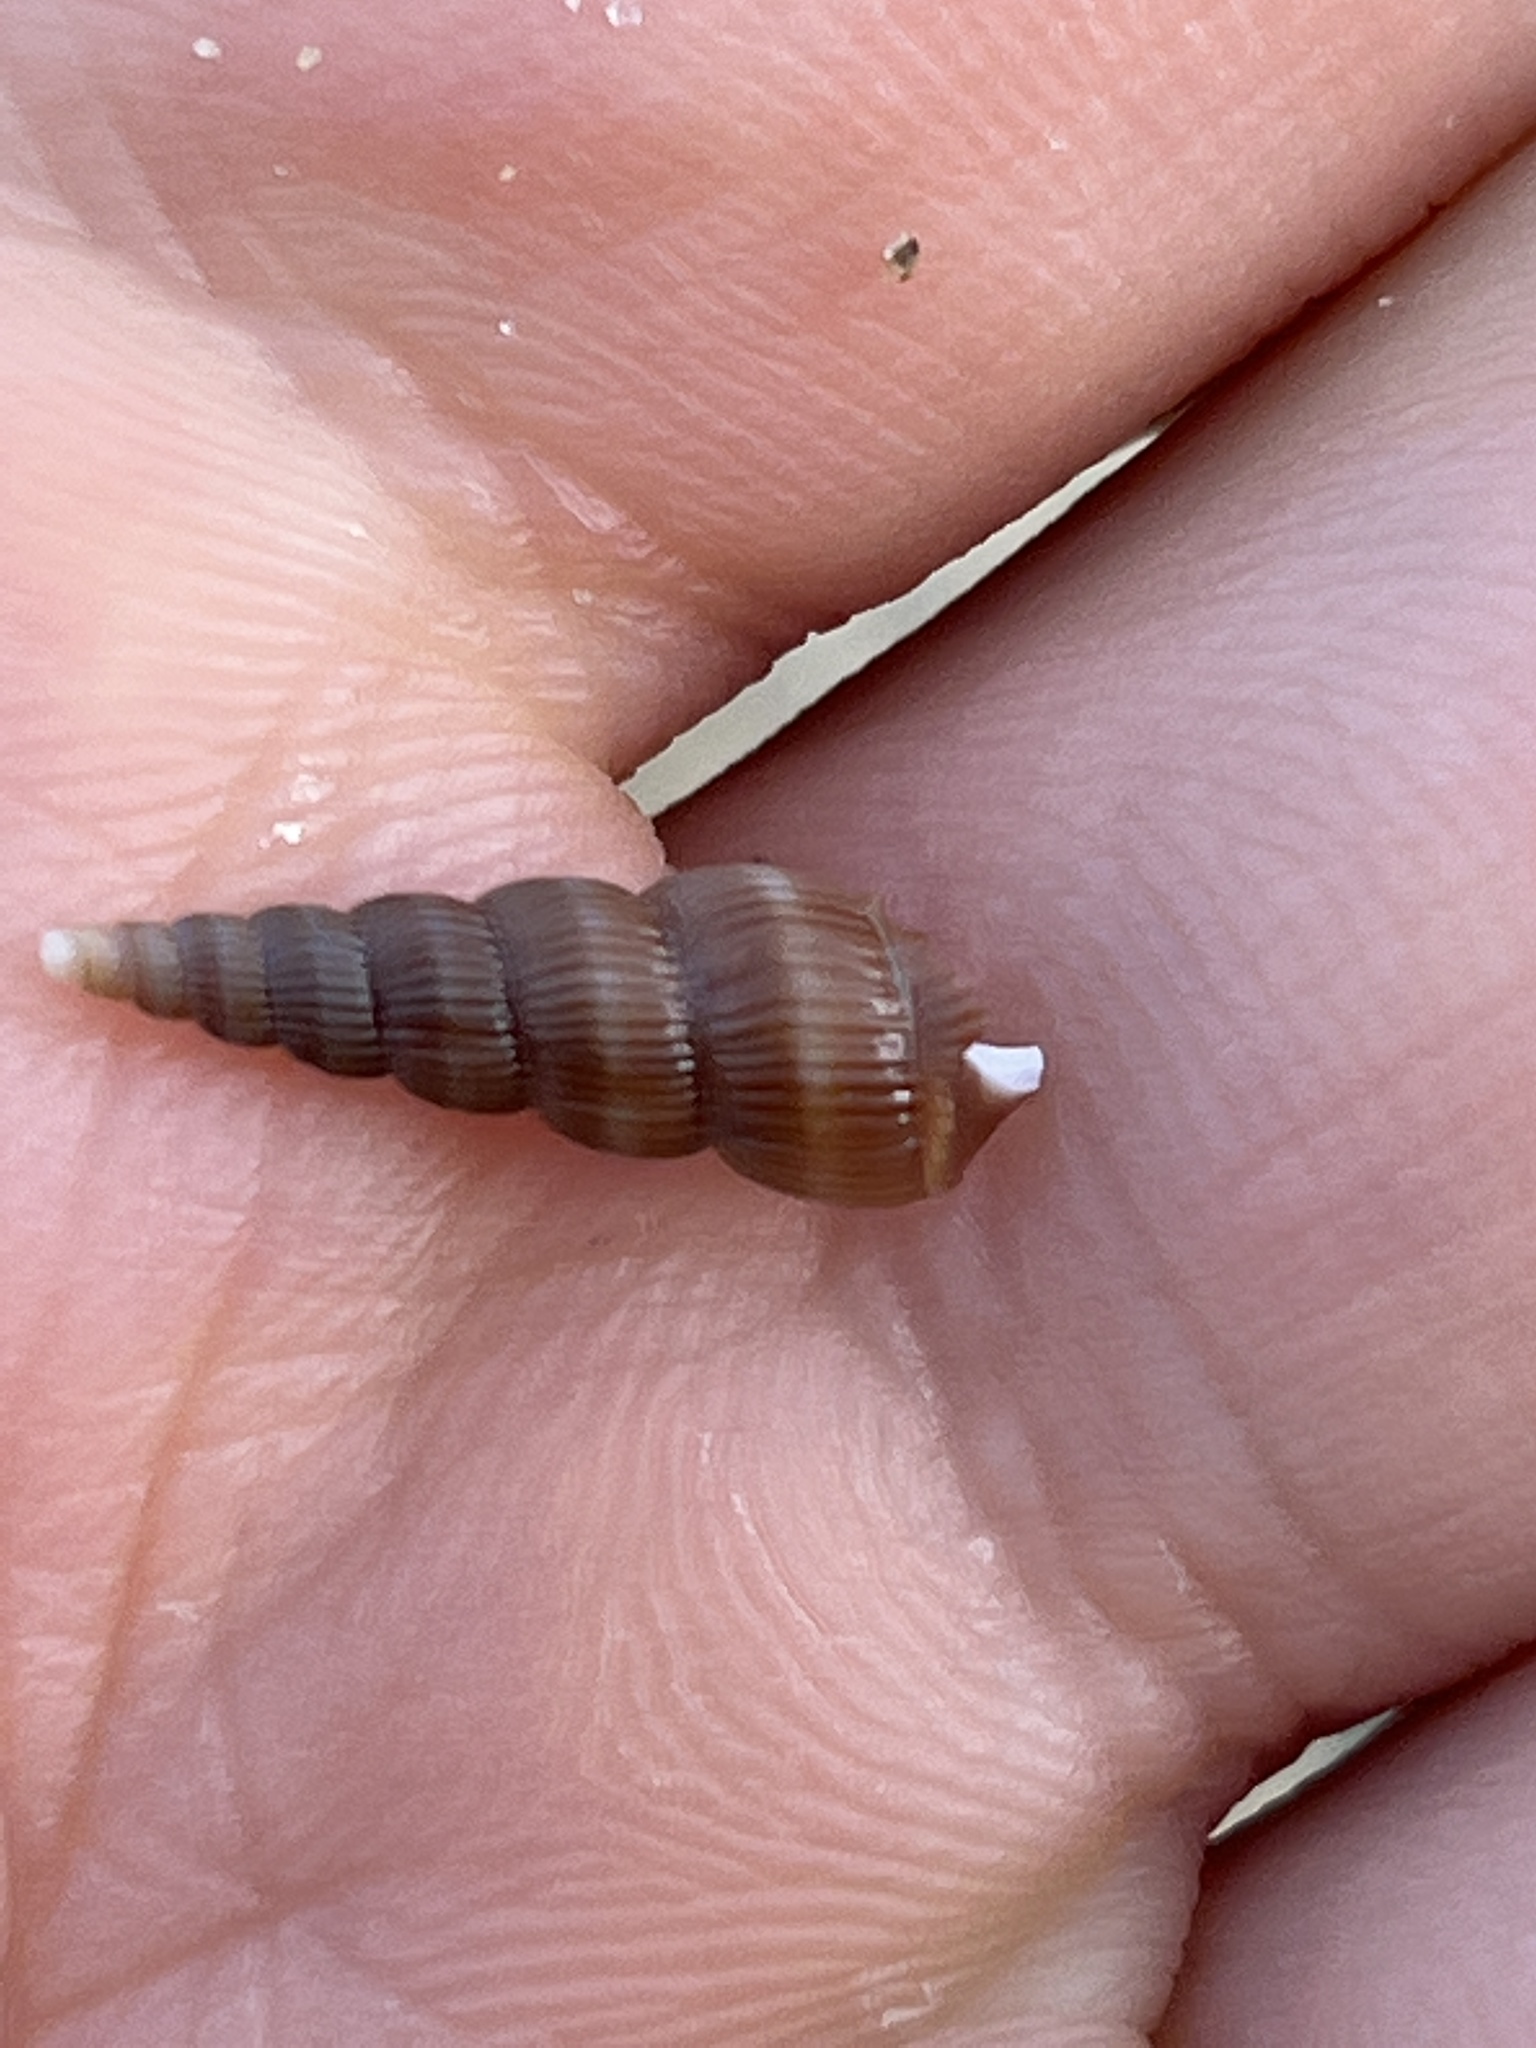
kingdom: Animalia
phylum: Mollusca
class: Gastropoda
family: Epitoniidae
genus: Acrilla
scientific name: Acrilla acuminata
